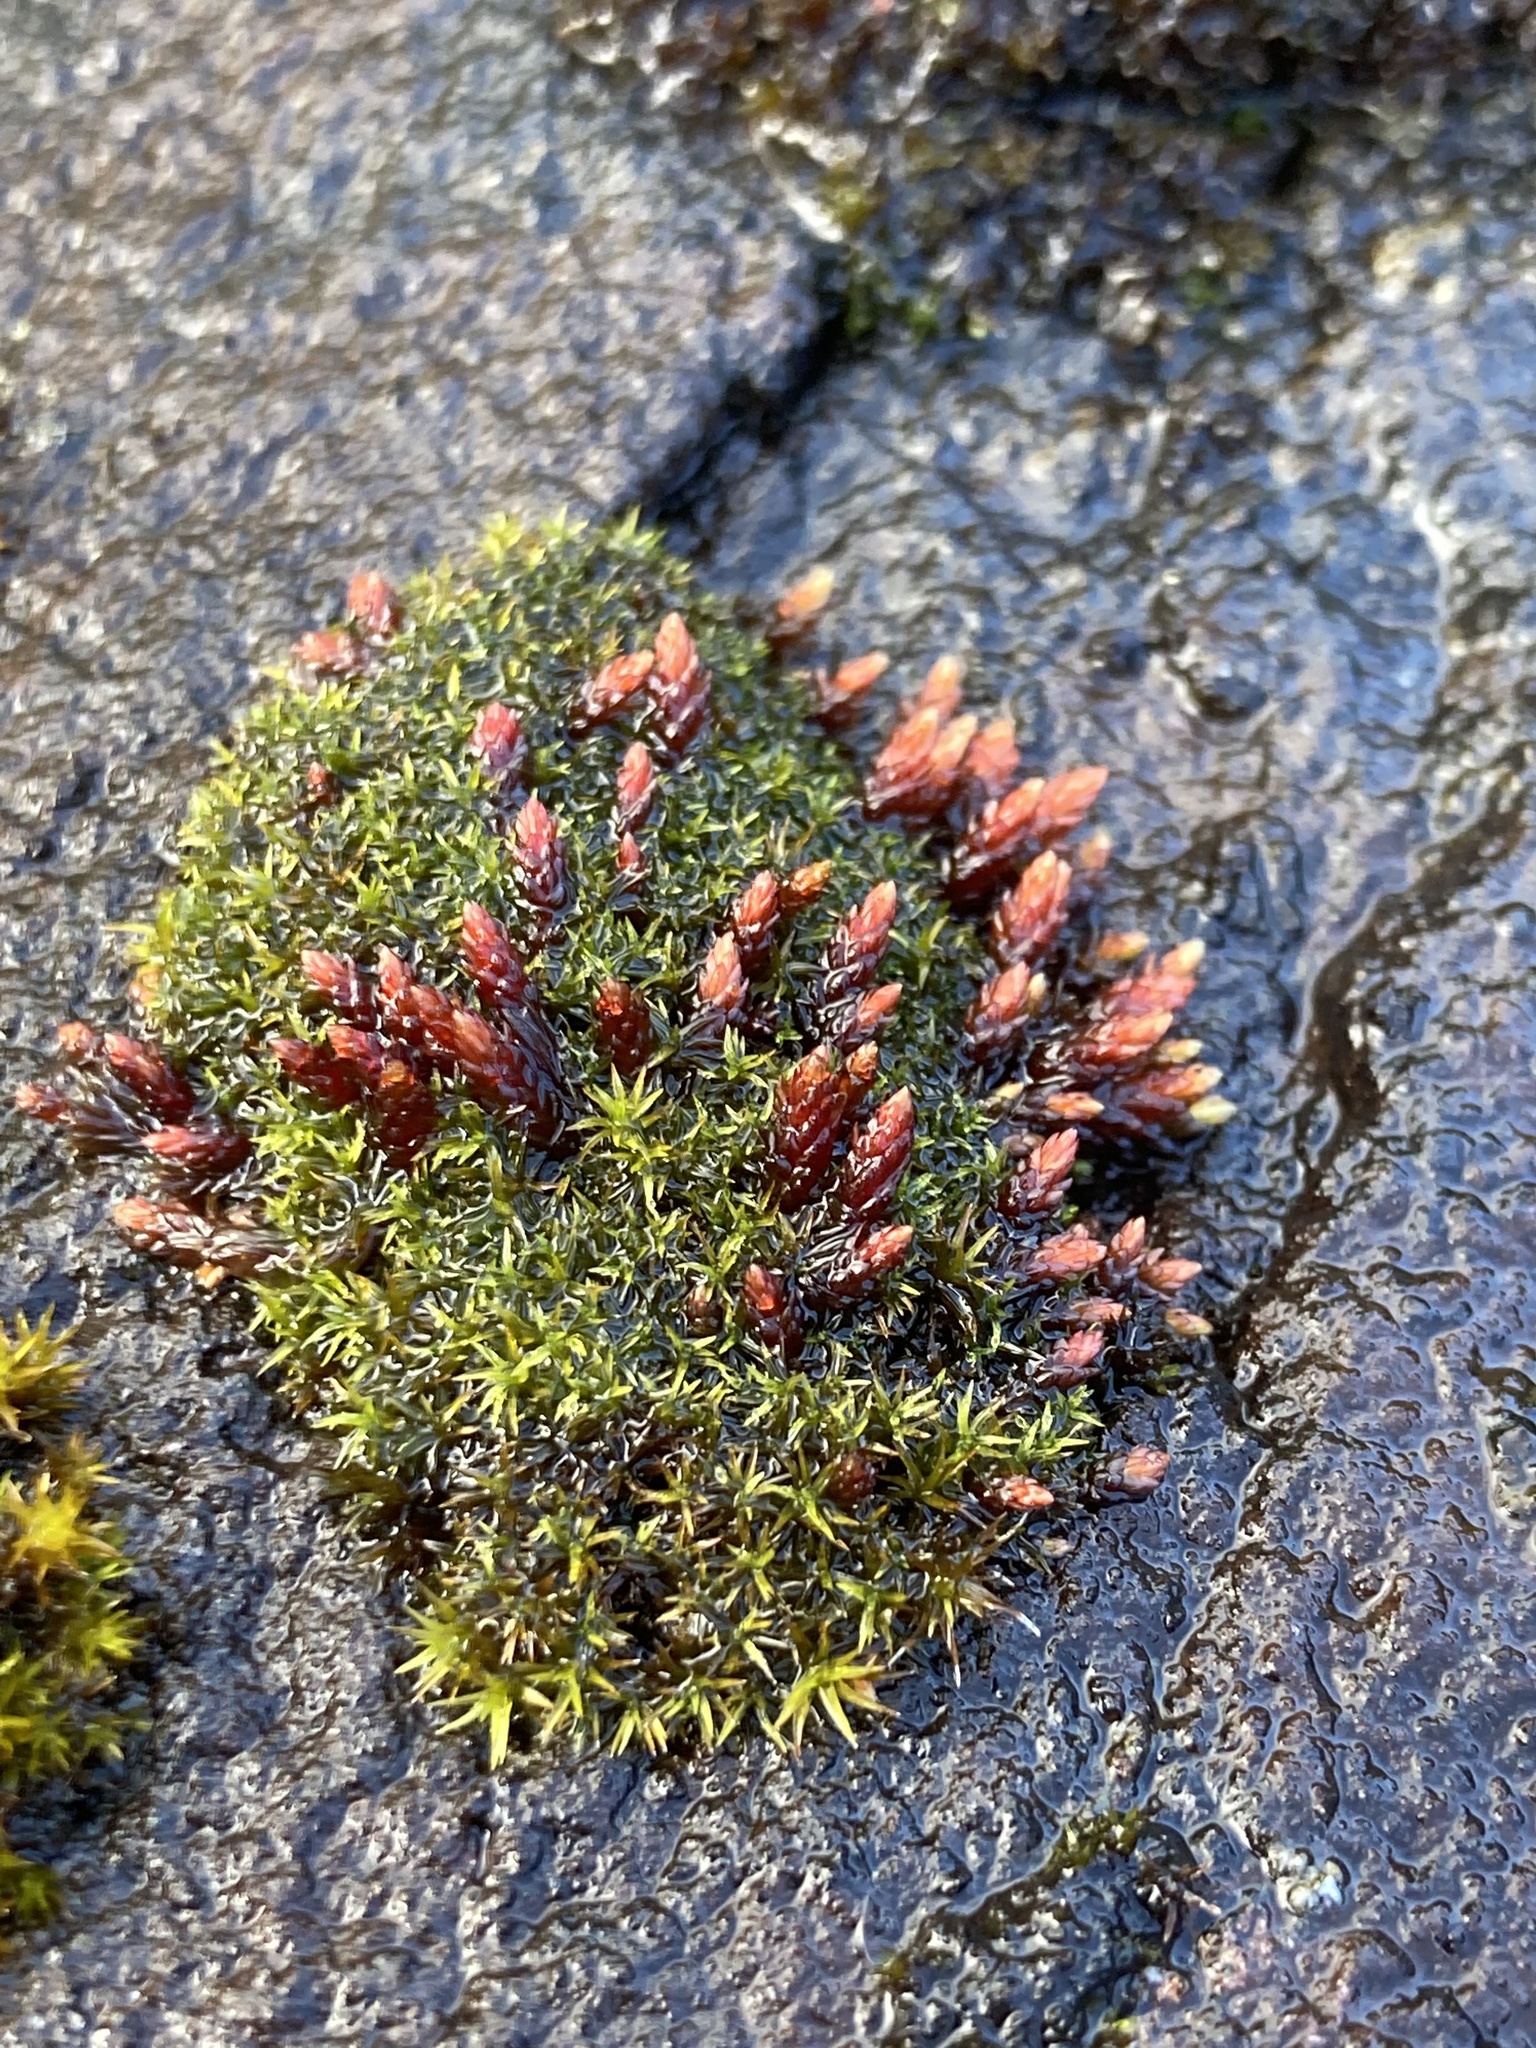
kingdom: Plantae
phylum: Bryophyta
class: Bryopsida
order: Bryales
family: Bryaceae
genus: Imbribryum
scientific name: Imbribryum miniatum
